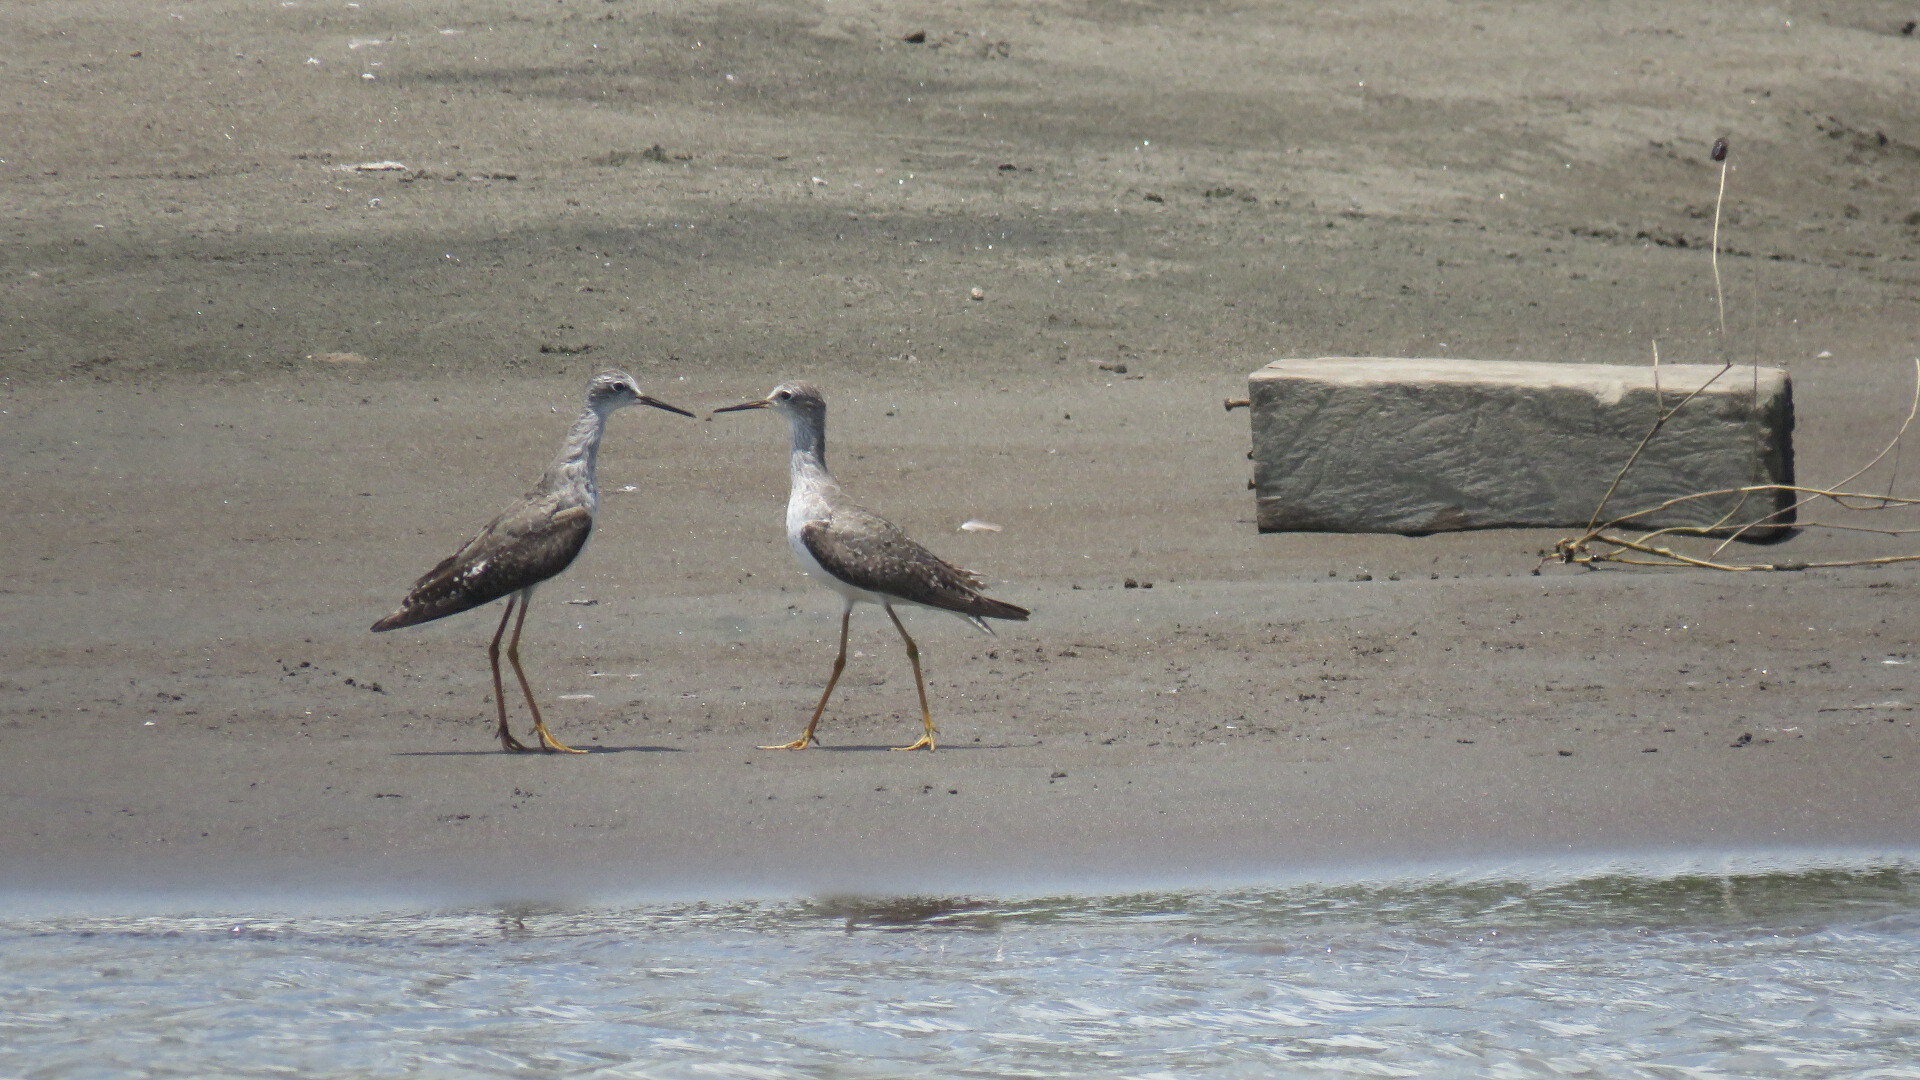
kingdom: Animalia
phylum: Chordata
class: Aves
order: Charadriiformes
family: Scolopacidae
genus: Tringa
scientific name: Tringa flavipes
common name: Lesser yellowlegs
